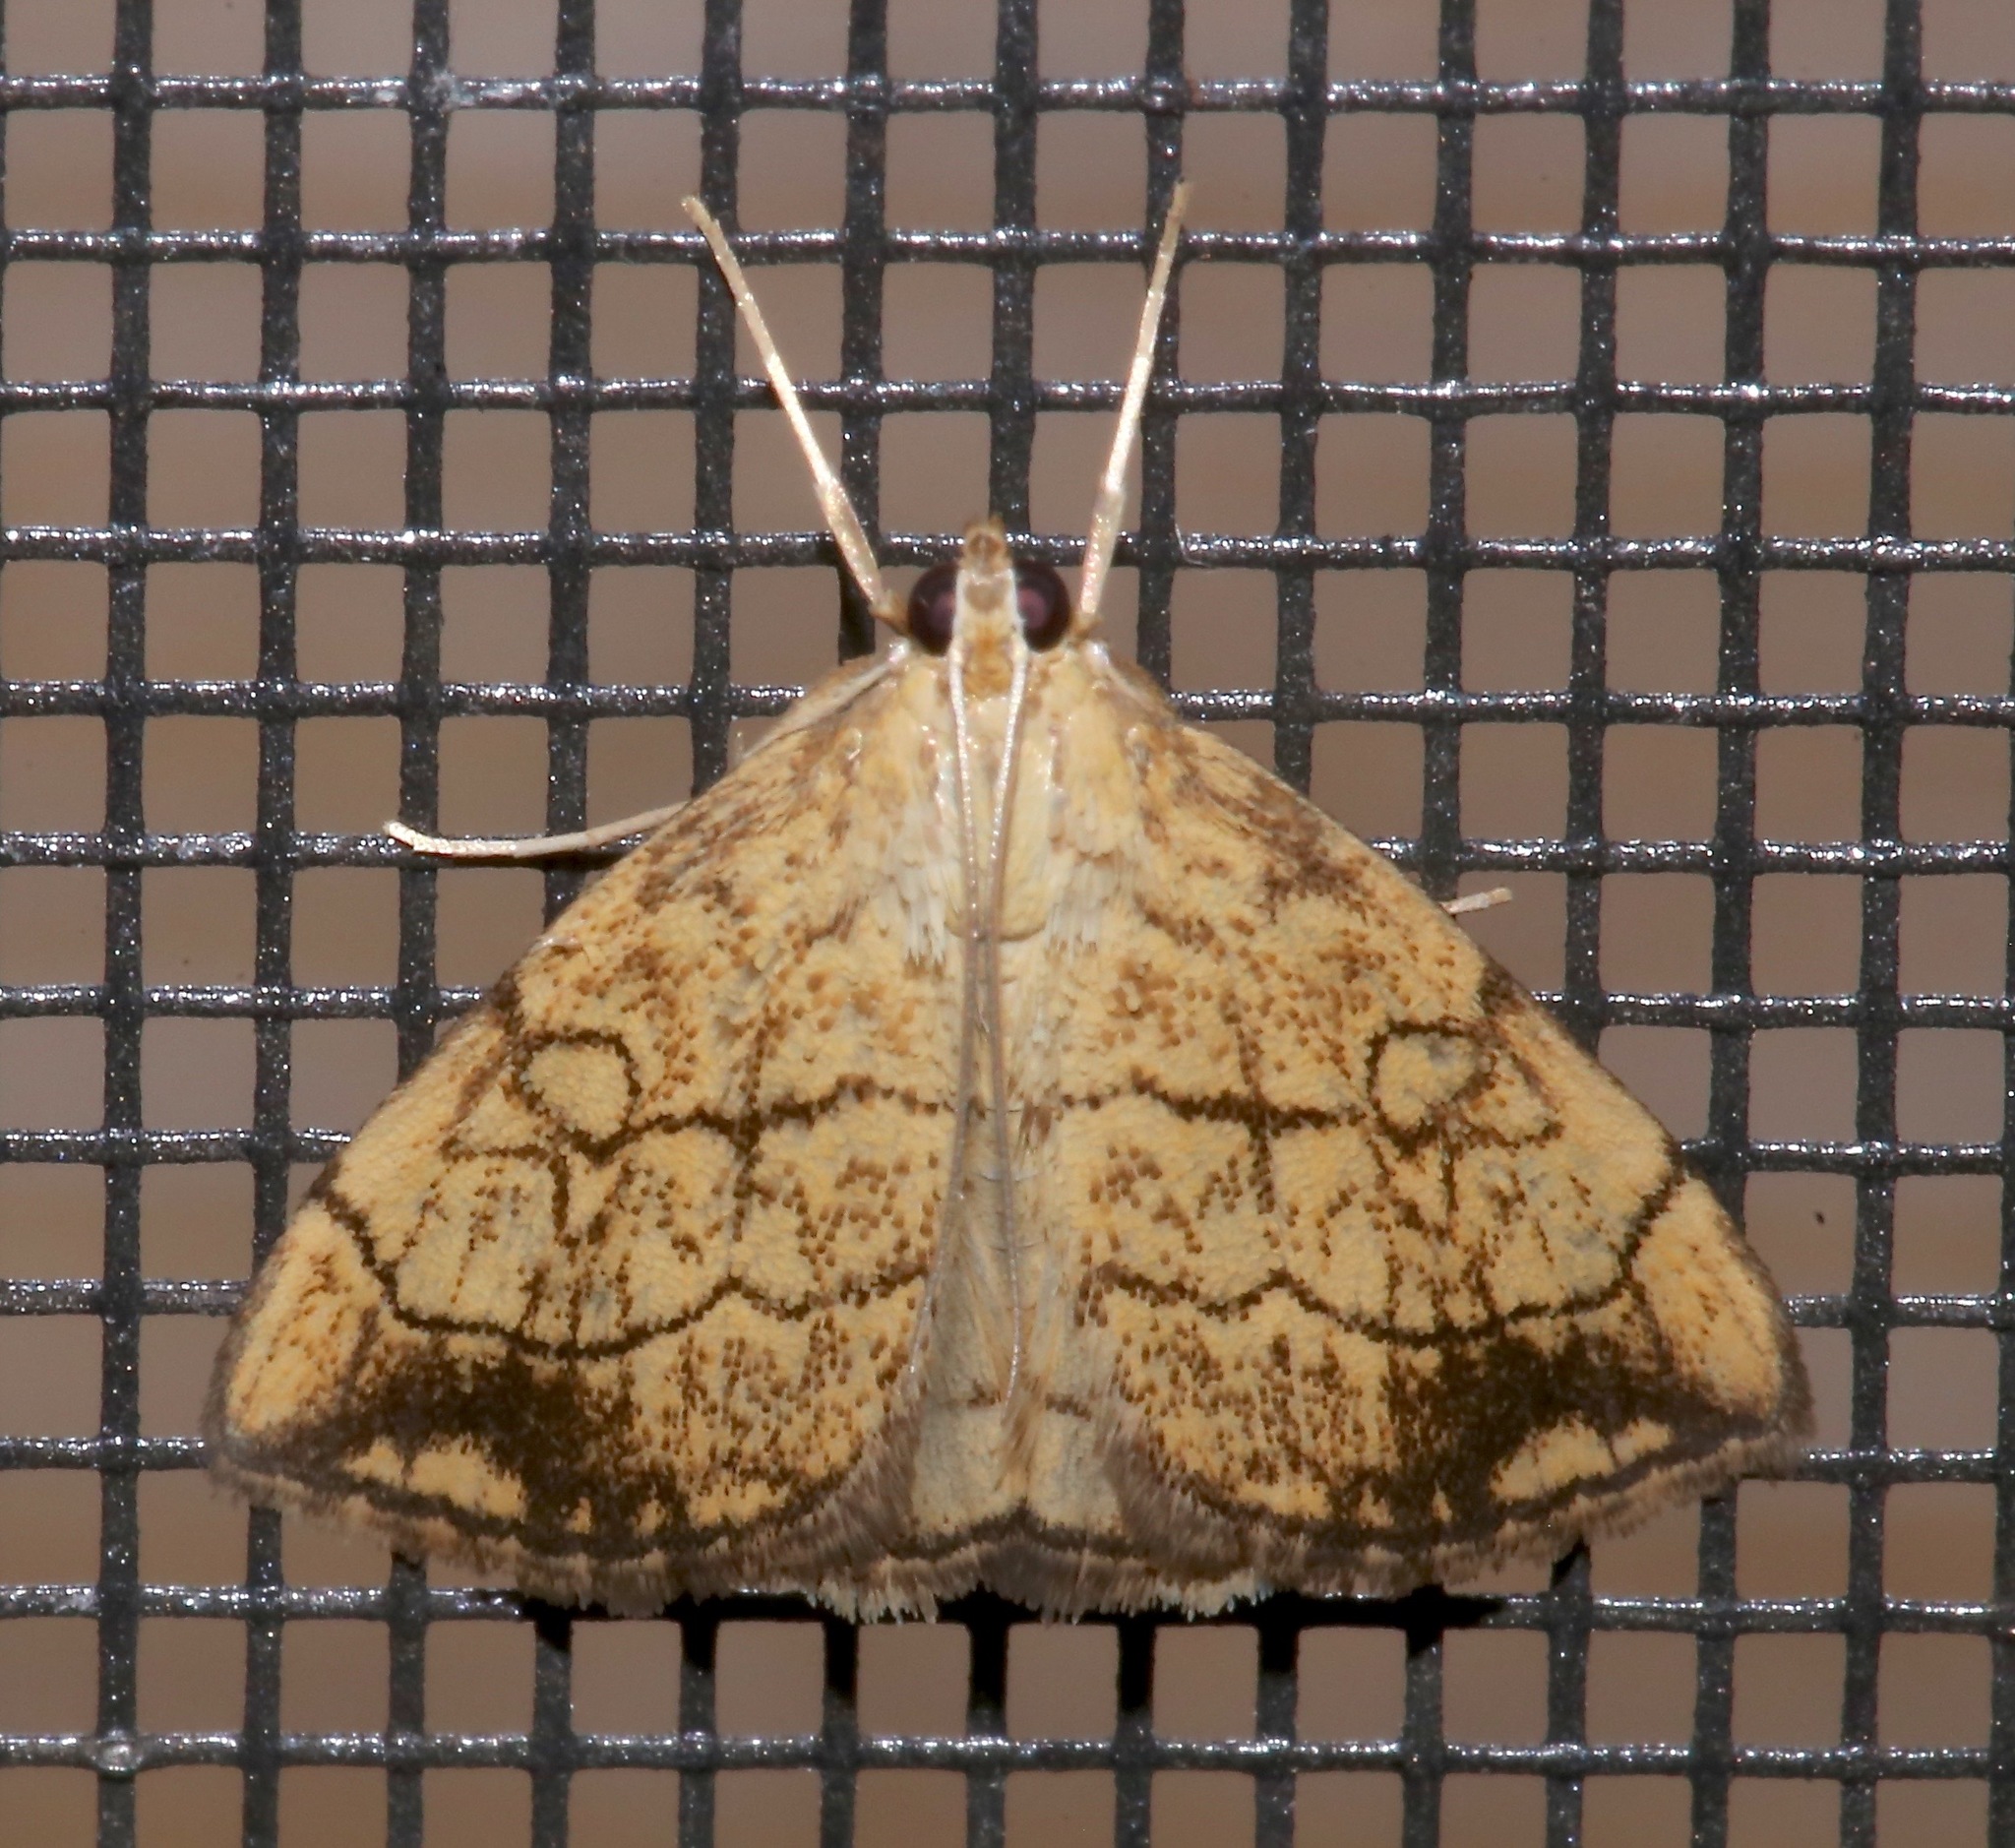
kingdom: Animalia
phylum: Arthropoda
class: Insecta
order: Lepidoptera
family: Crambidae
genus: Evergestis
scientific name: Evergestis pallidata
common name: Chequered pearl
